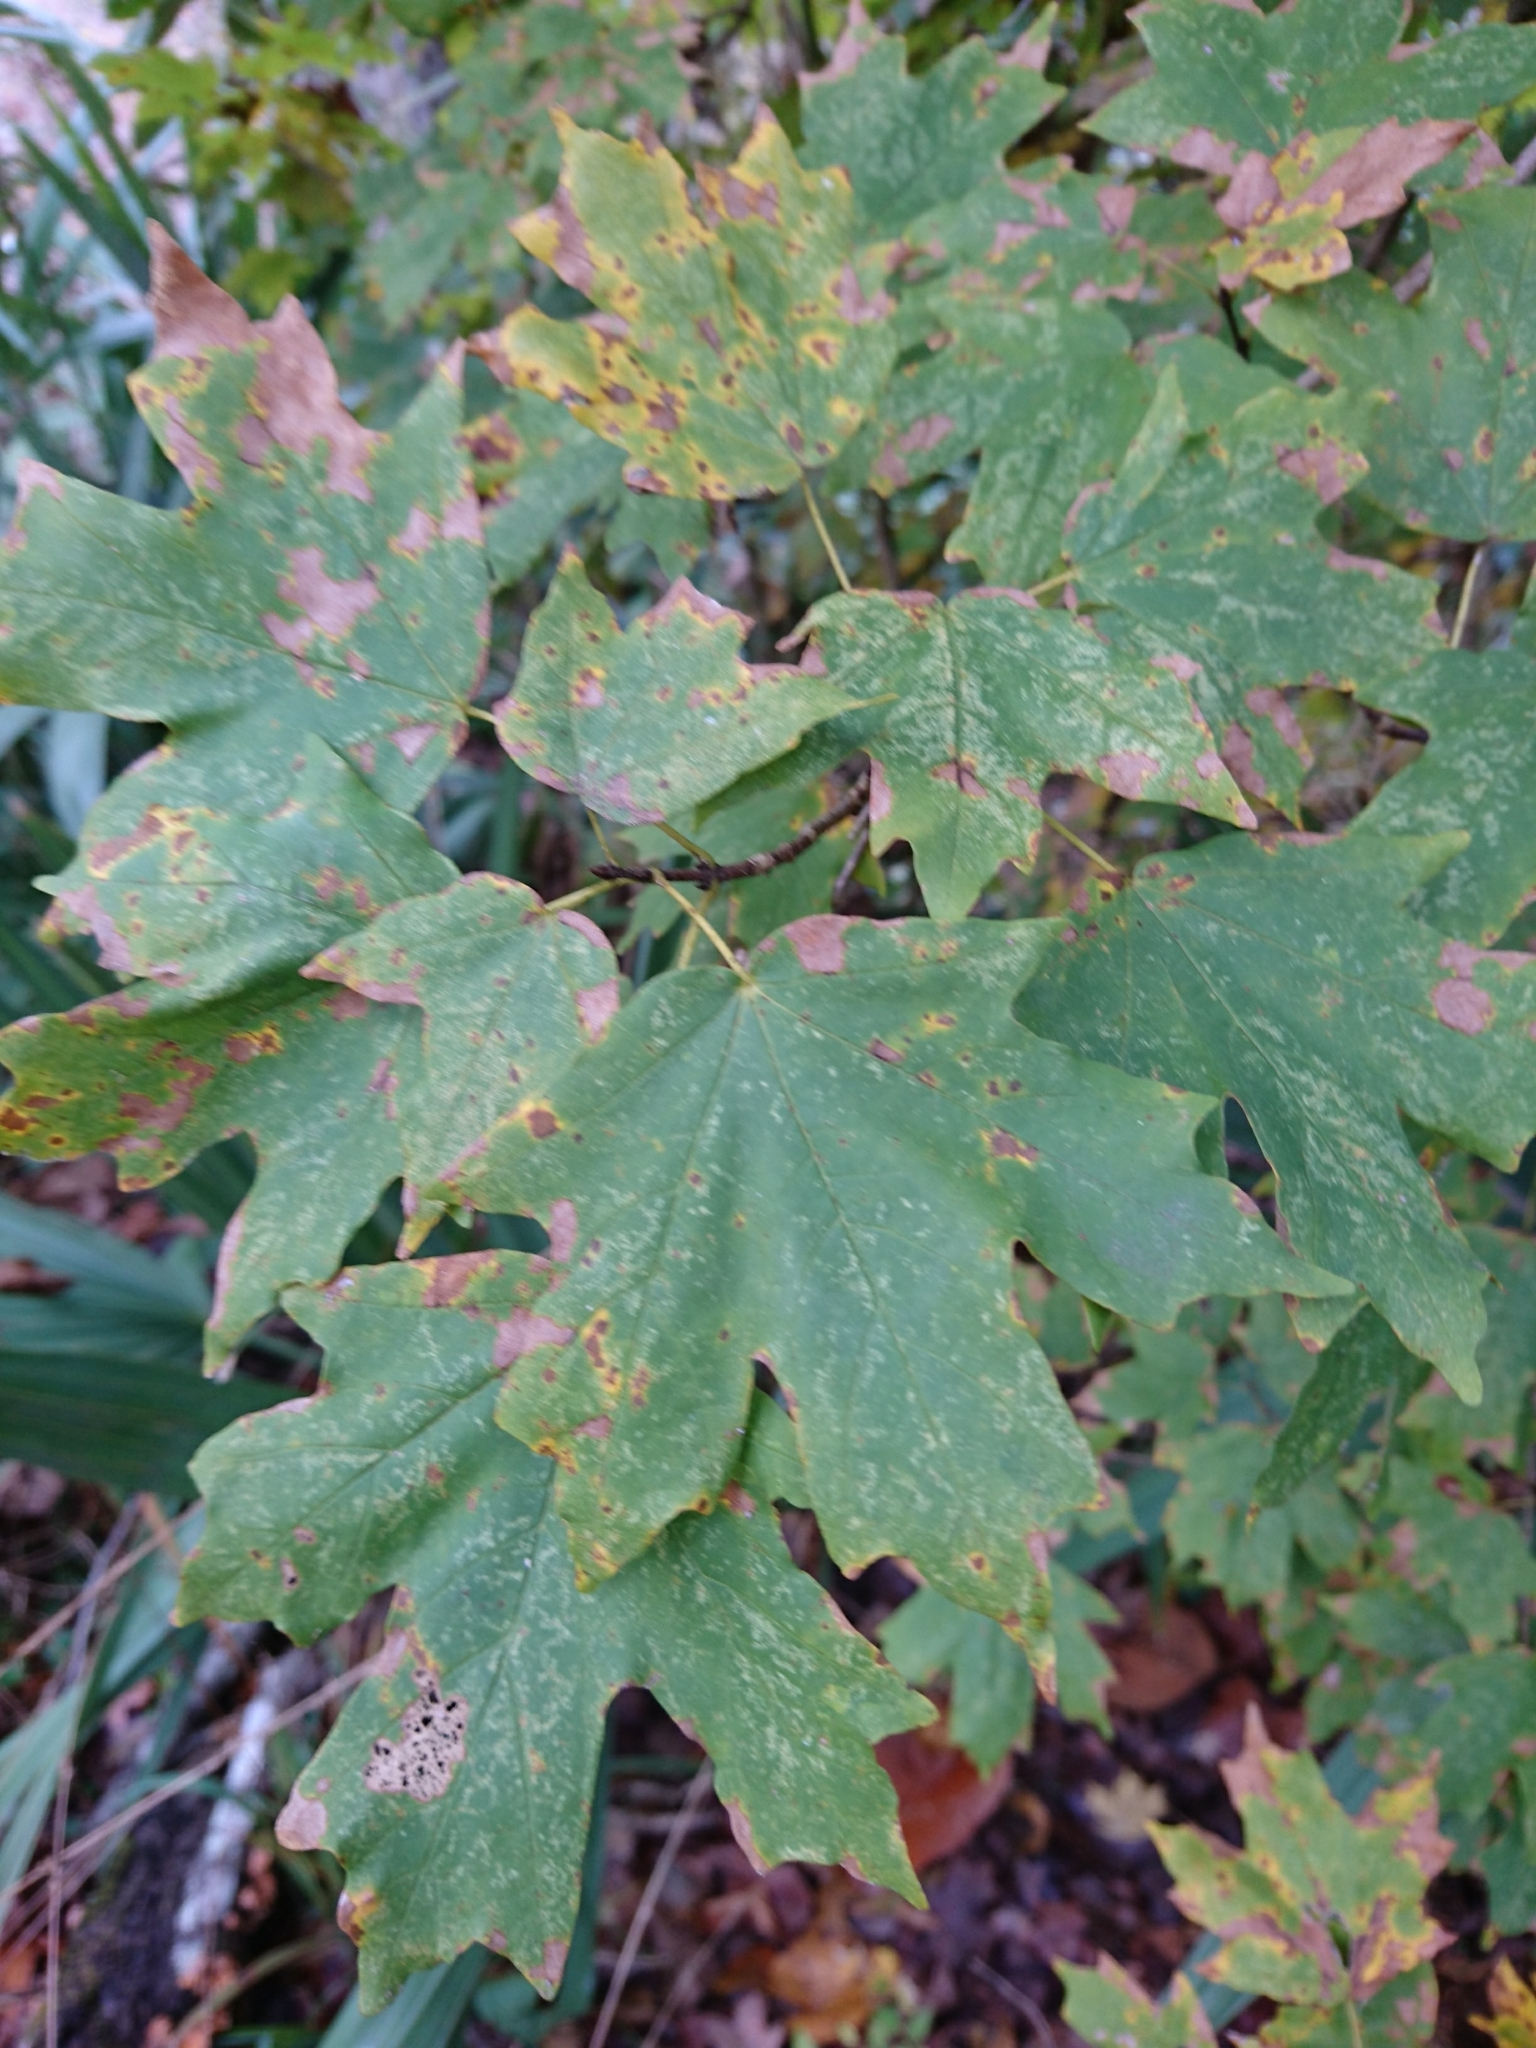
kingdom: Plantae
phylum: Tracheophyta
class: Magnoliopsida
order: Sapindales
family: Sapindaceae
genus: Acer
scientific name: Acer floridanum
